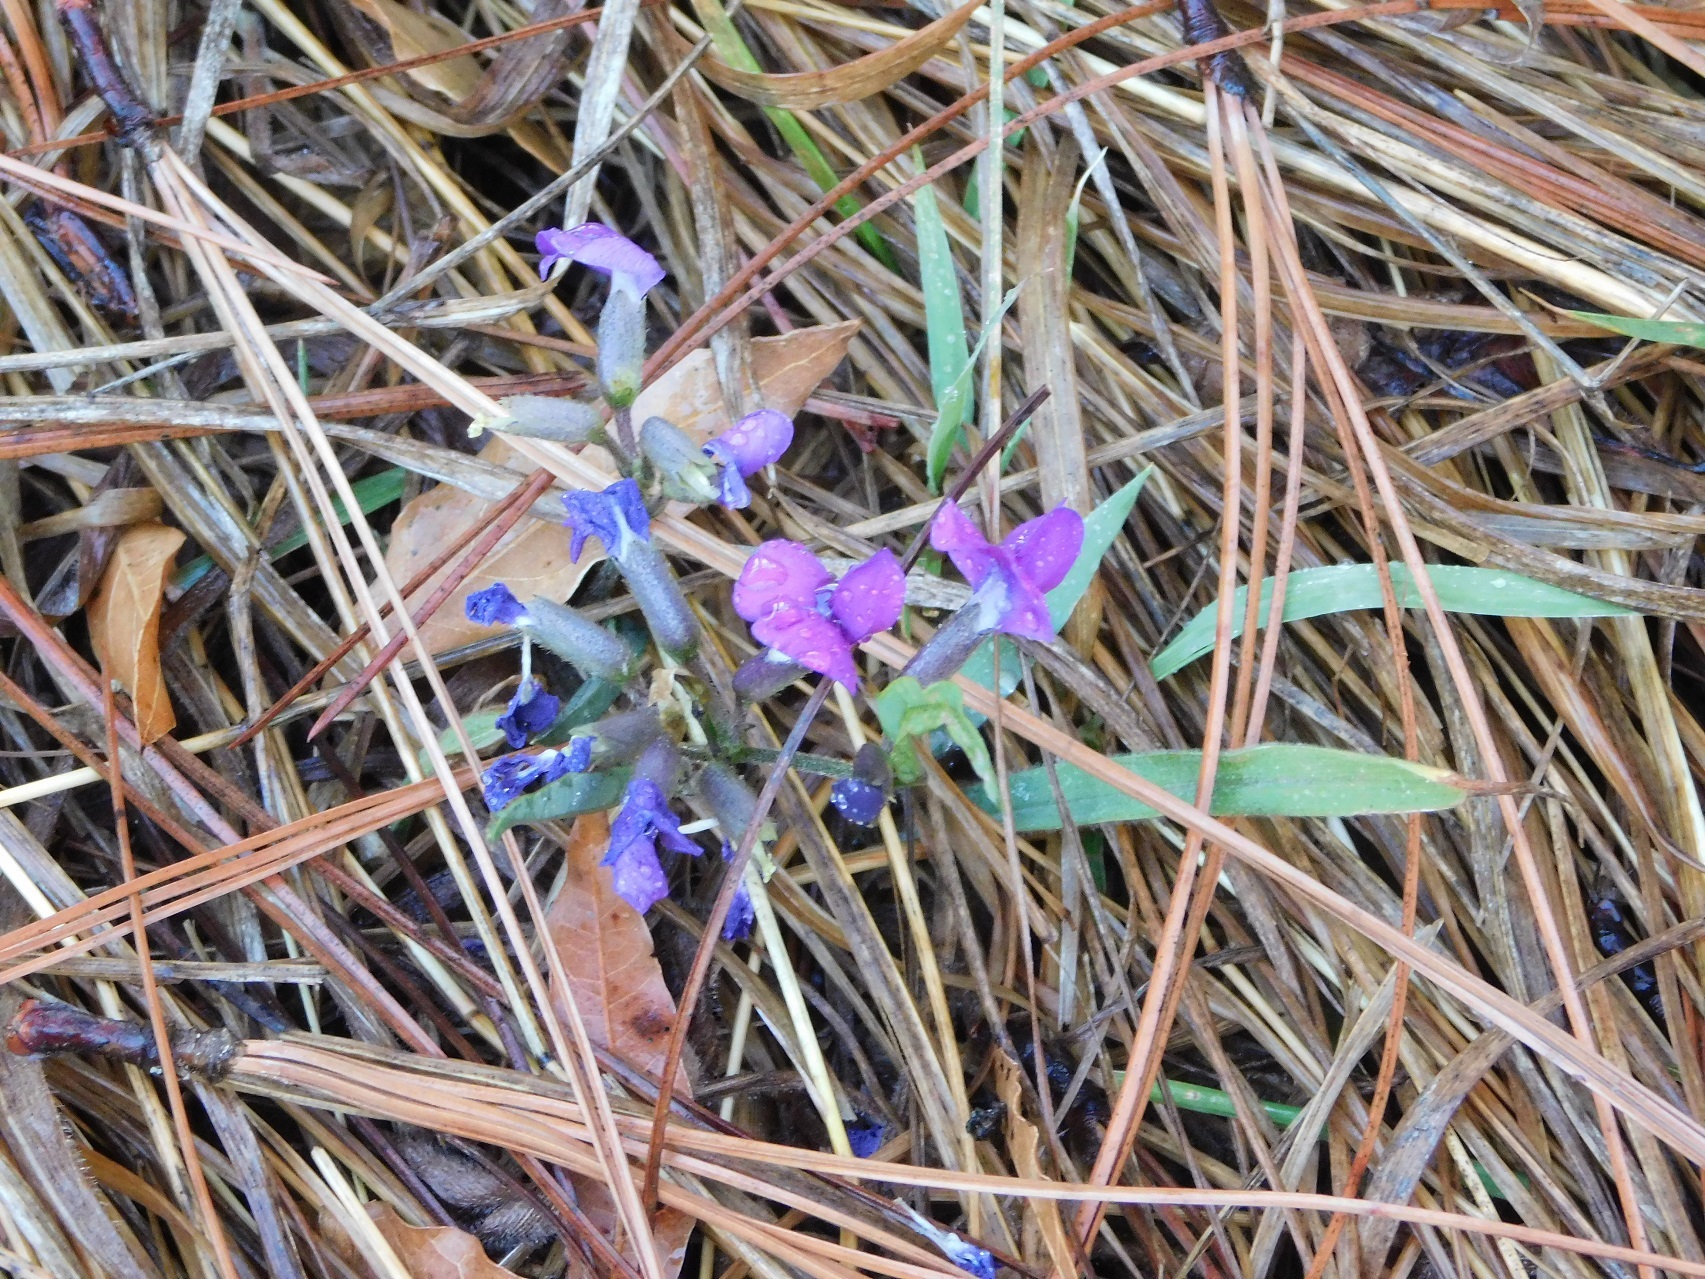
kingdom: Plantae
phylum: Tracheophyta
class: Magnoliopsida
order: Fabales
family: Fabaceae
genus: Cologania
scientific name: Cologania procumbens
